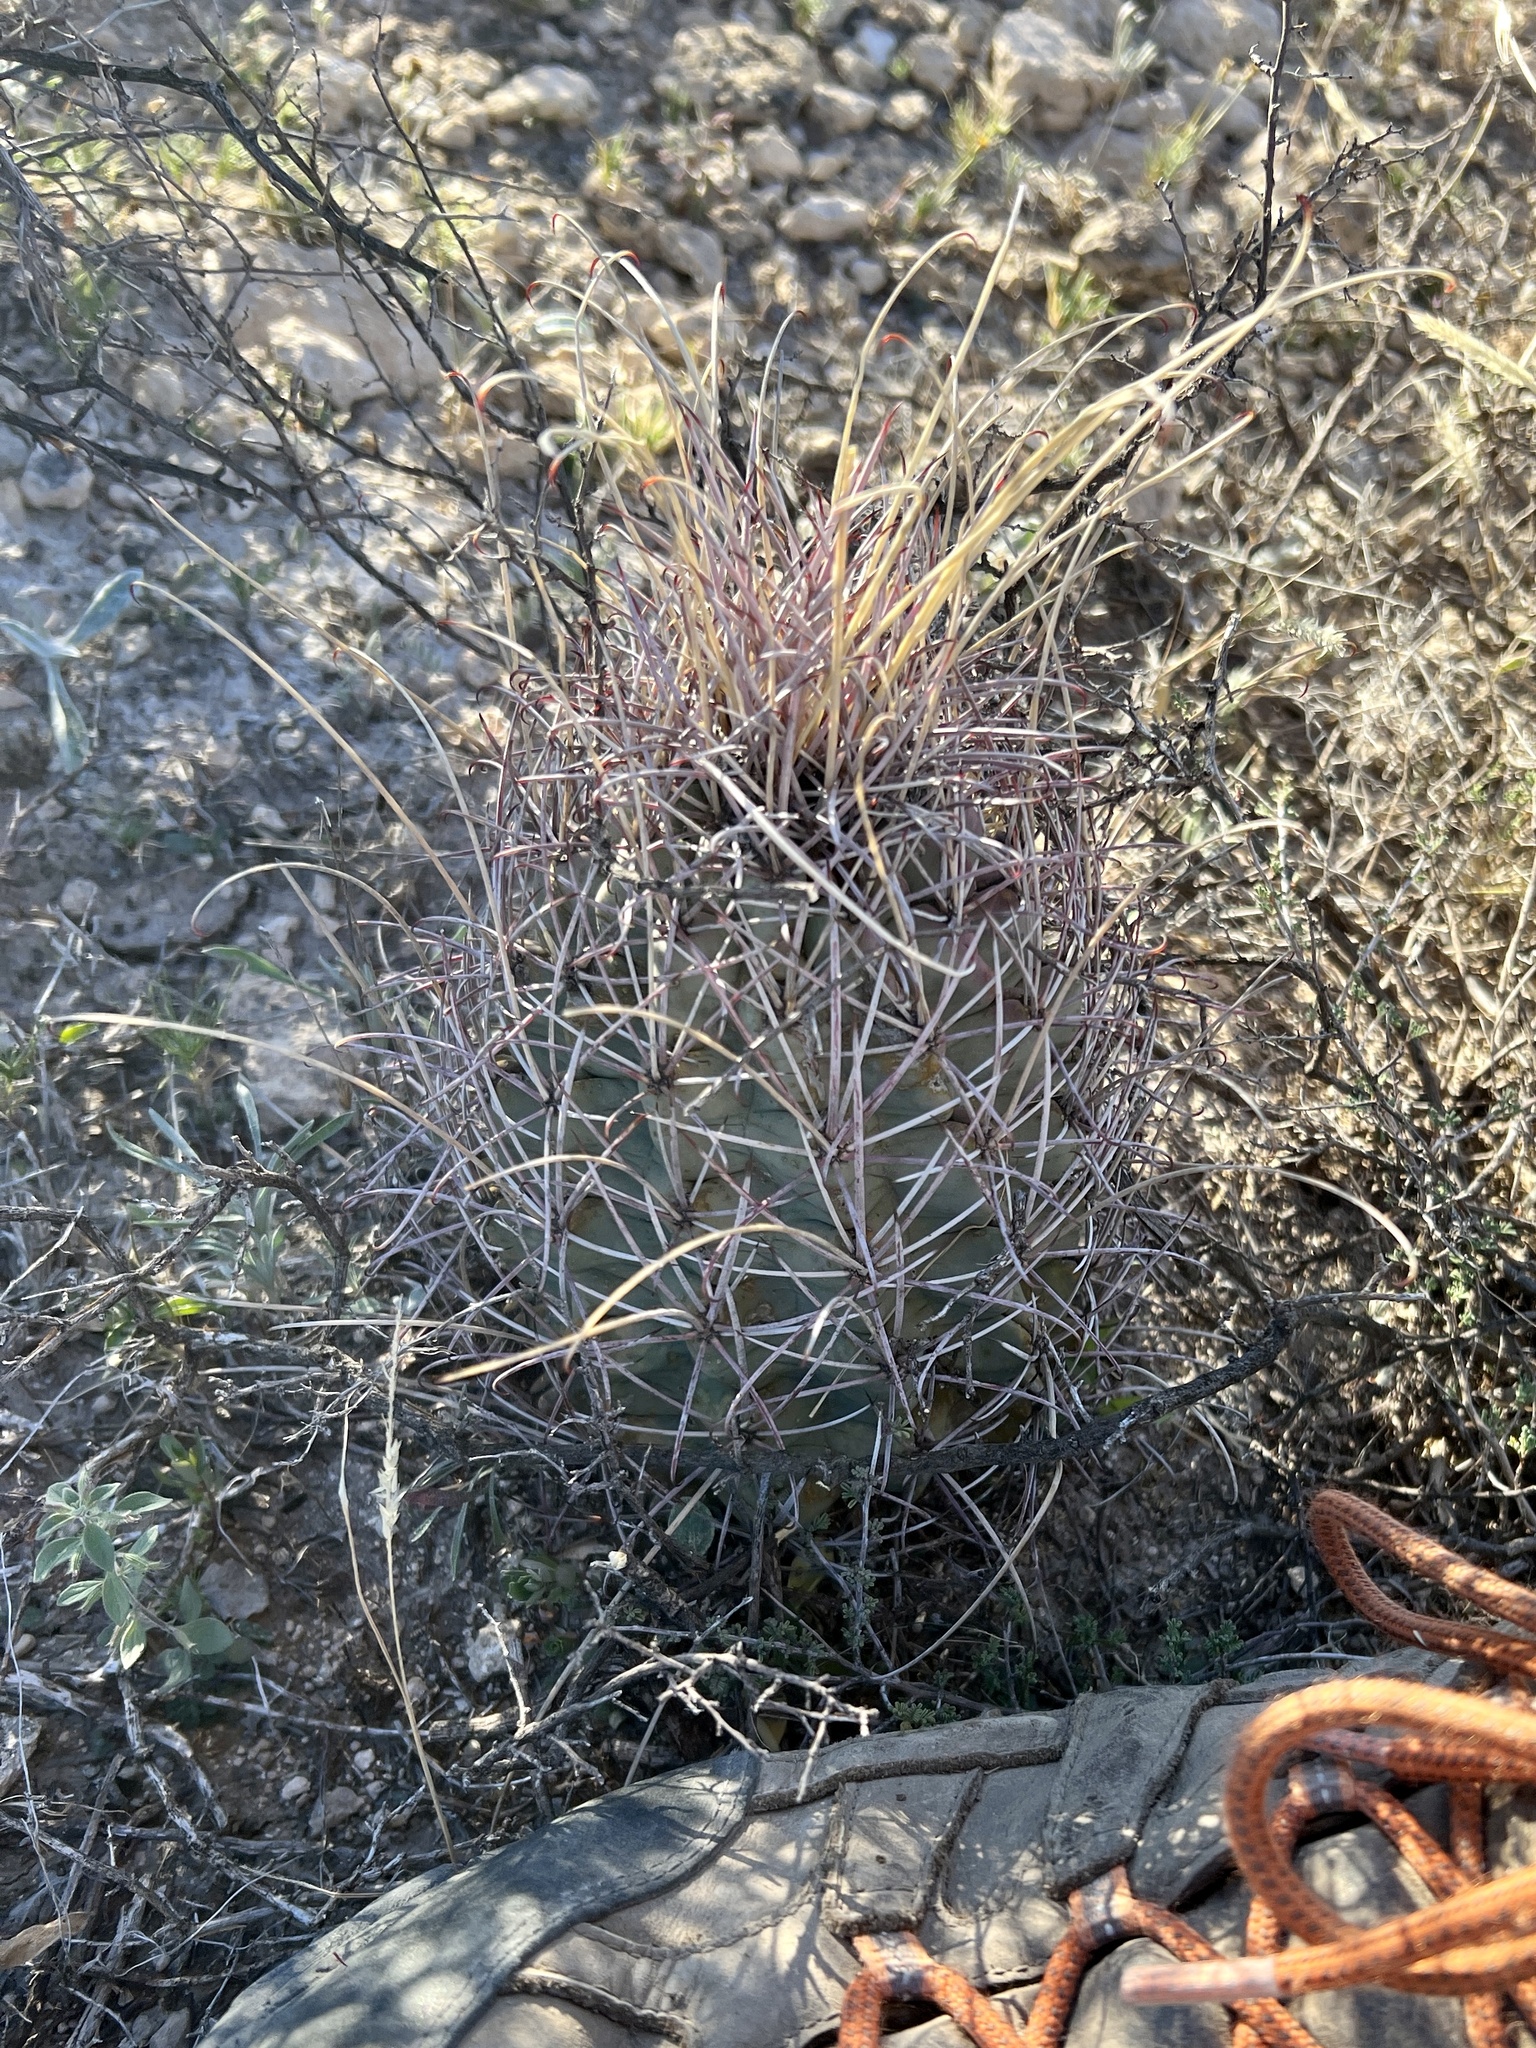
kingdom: Plantae
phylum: Tracheophyta
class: Magnoliopsida
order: Caryophyllales
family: Cactaceae
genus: Ferocactus
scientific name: Ferocactus uncinatus
